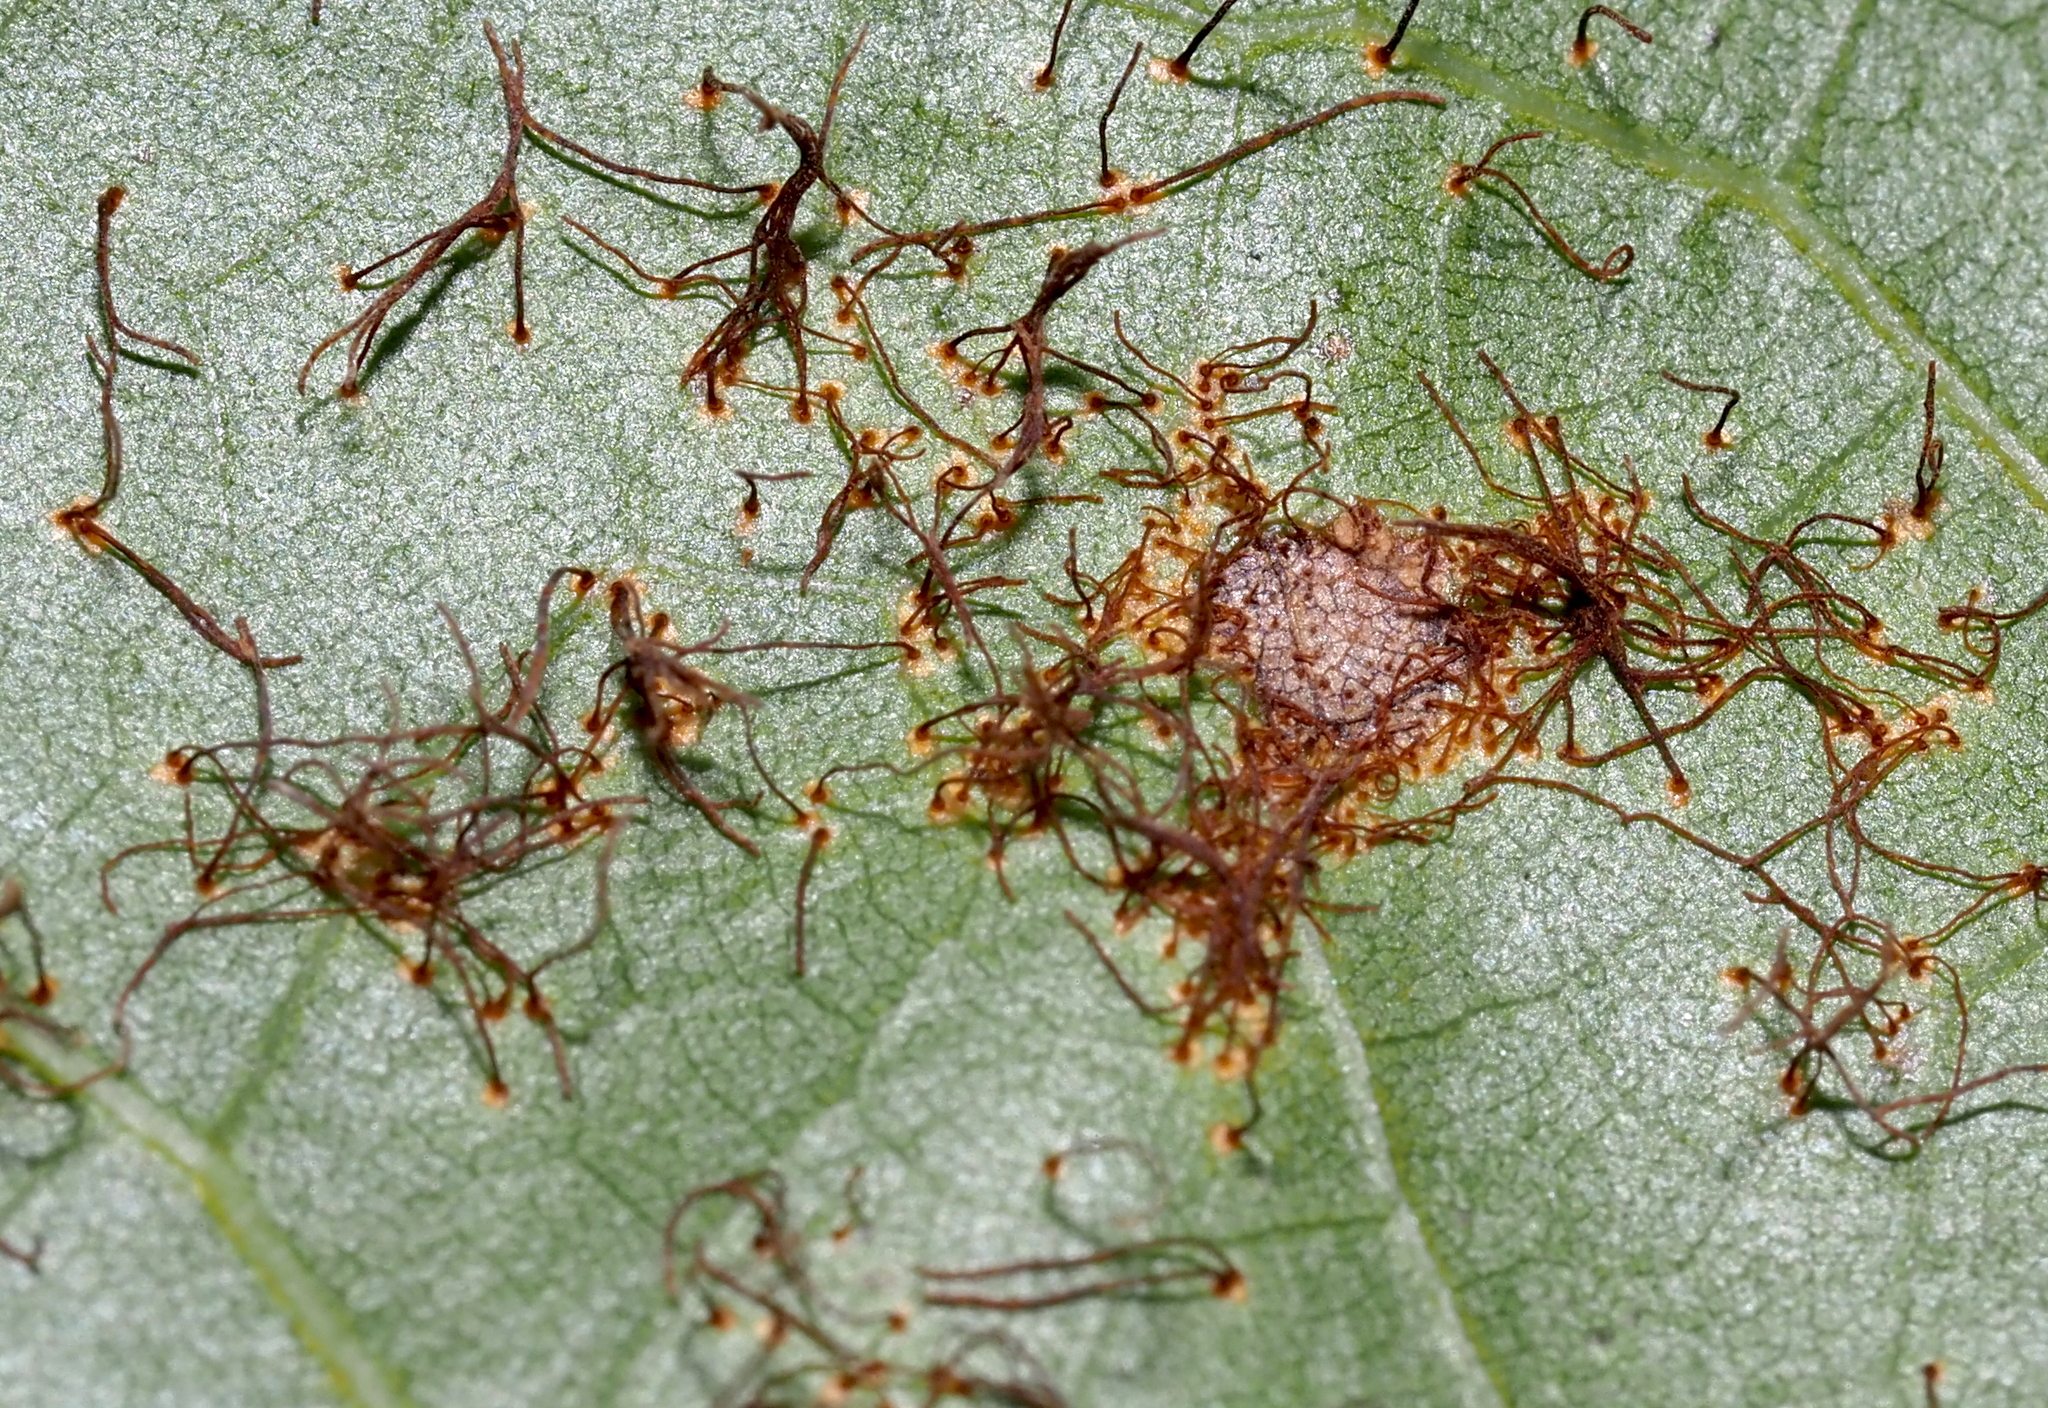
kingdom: Fungi
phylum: Basidiomycota
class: Pucciniomycetes
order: Pucciniales
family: Cronartiaceae
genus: Cronartium
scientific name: Cronartium quercuum
